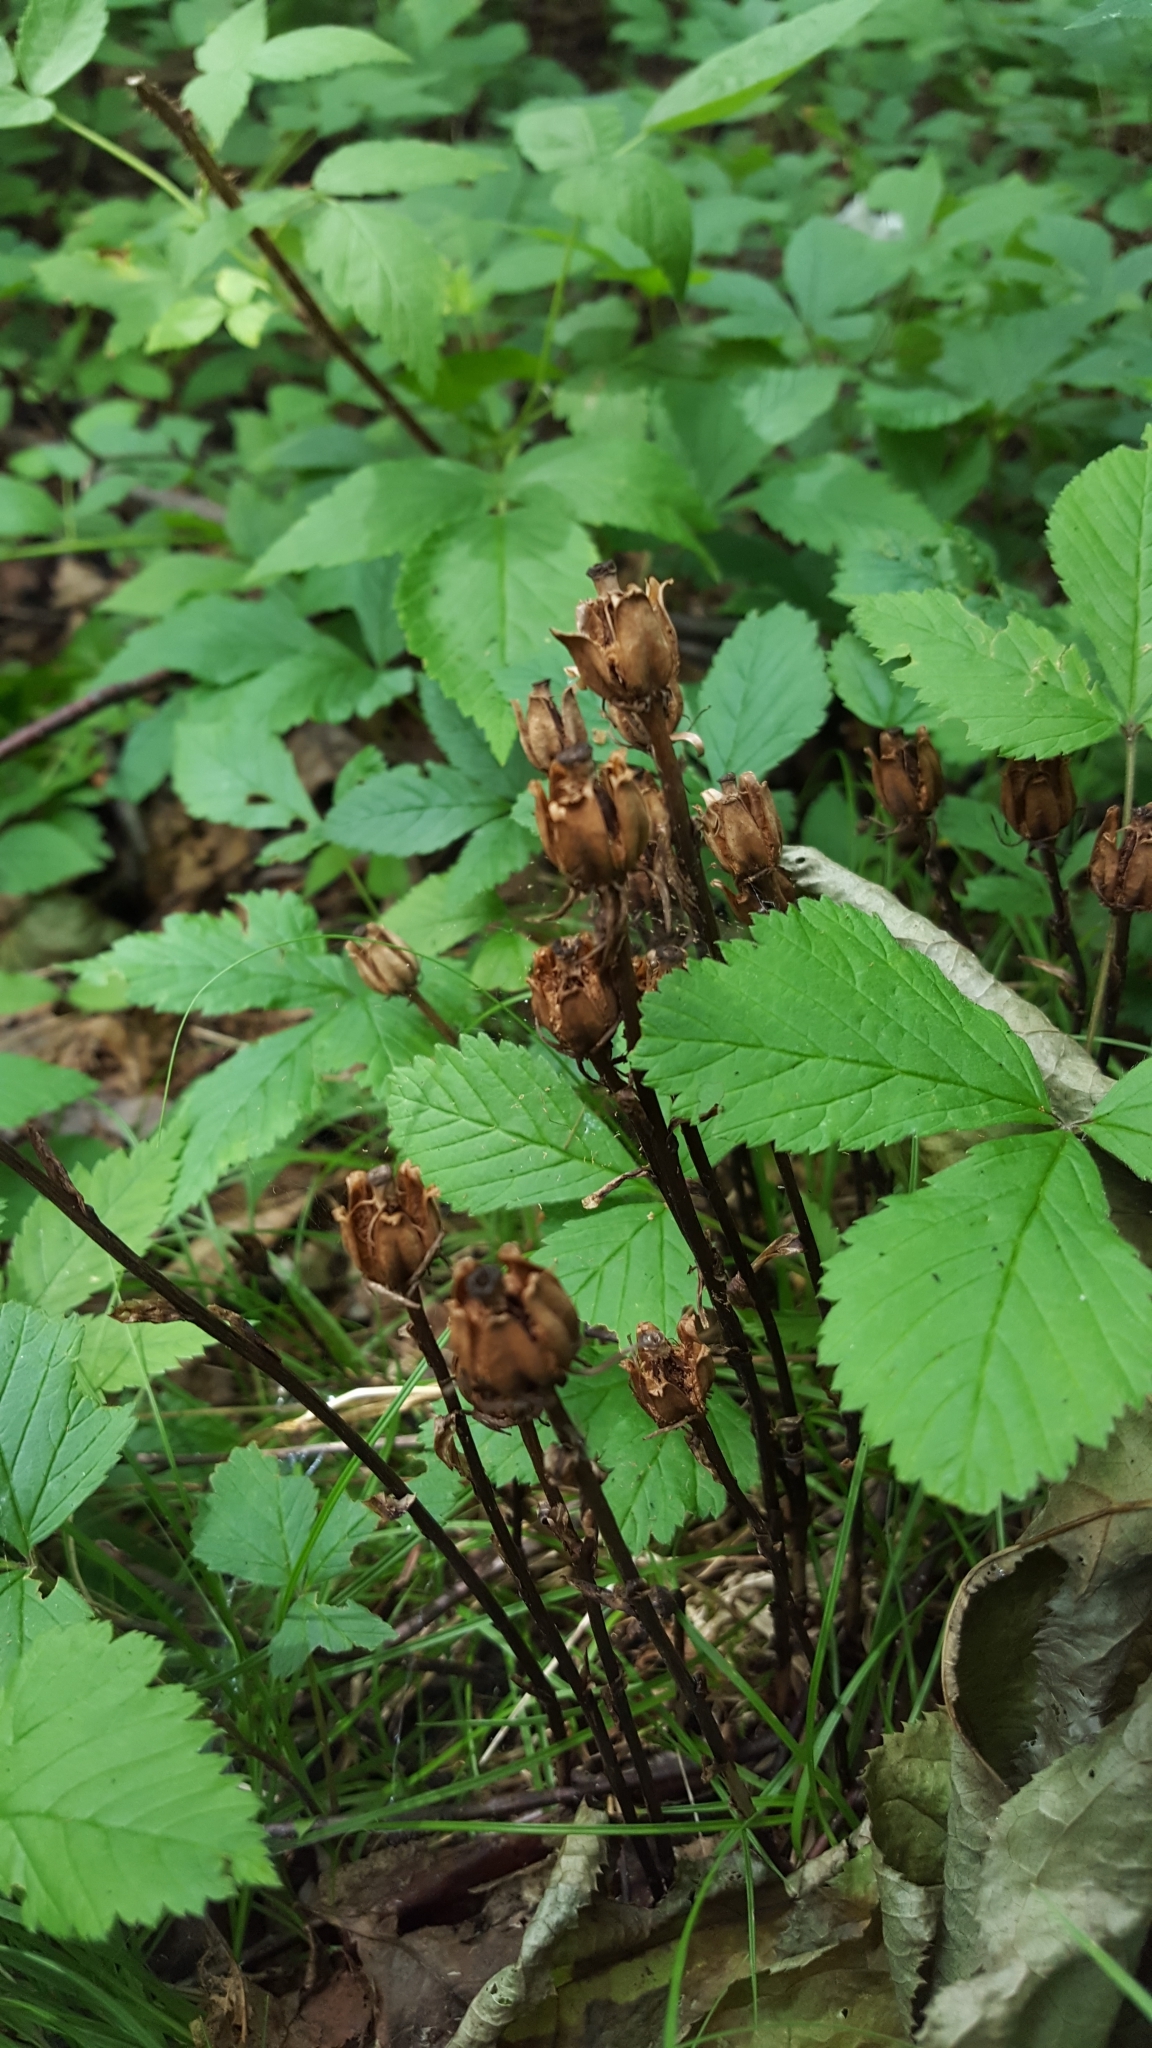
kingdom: Plantae
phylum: Tracheophyta
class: Magnoliopsida
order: Ericales
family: Ericaceae
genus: Monotropa
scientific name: Monotropa uniflora
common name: Convulsion root
